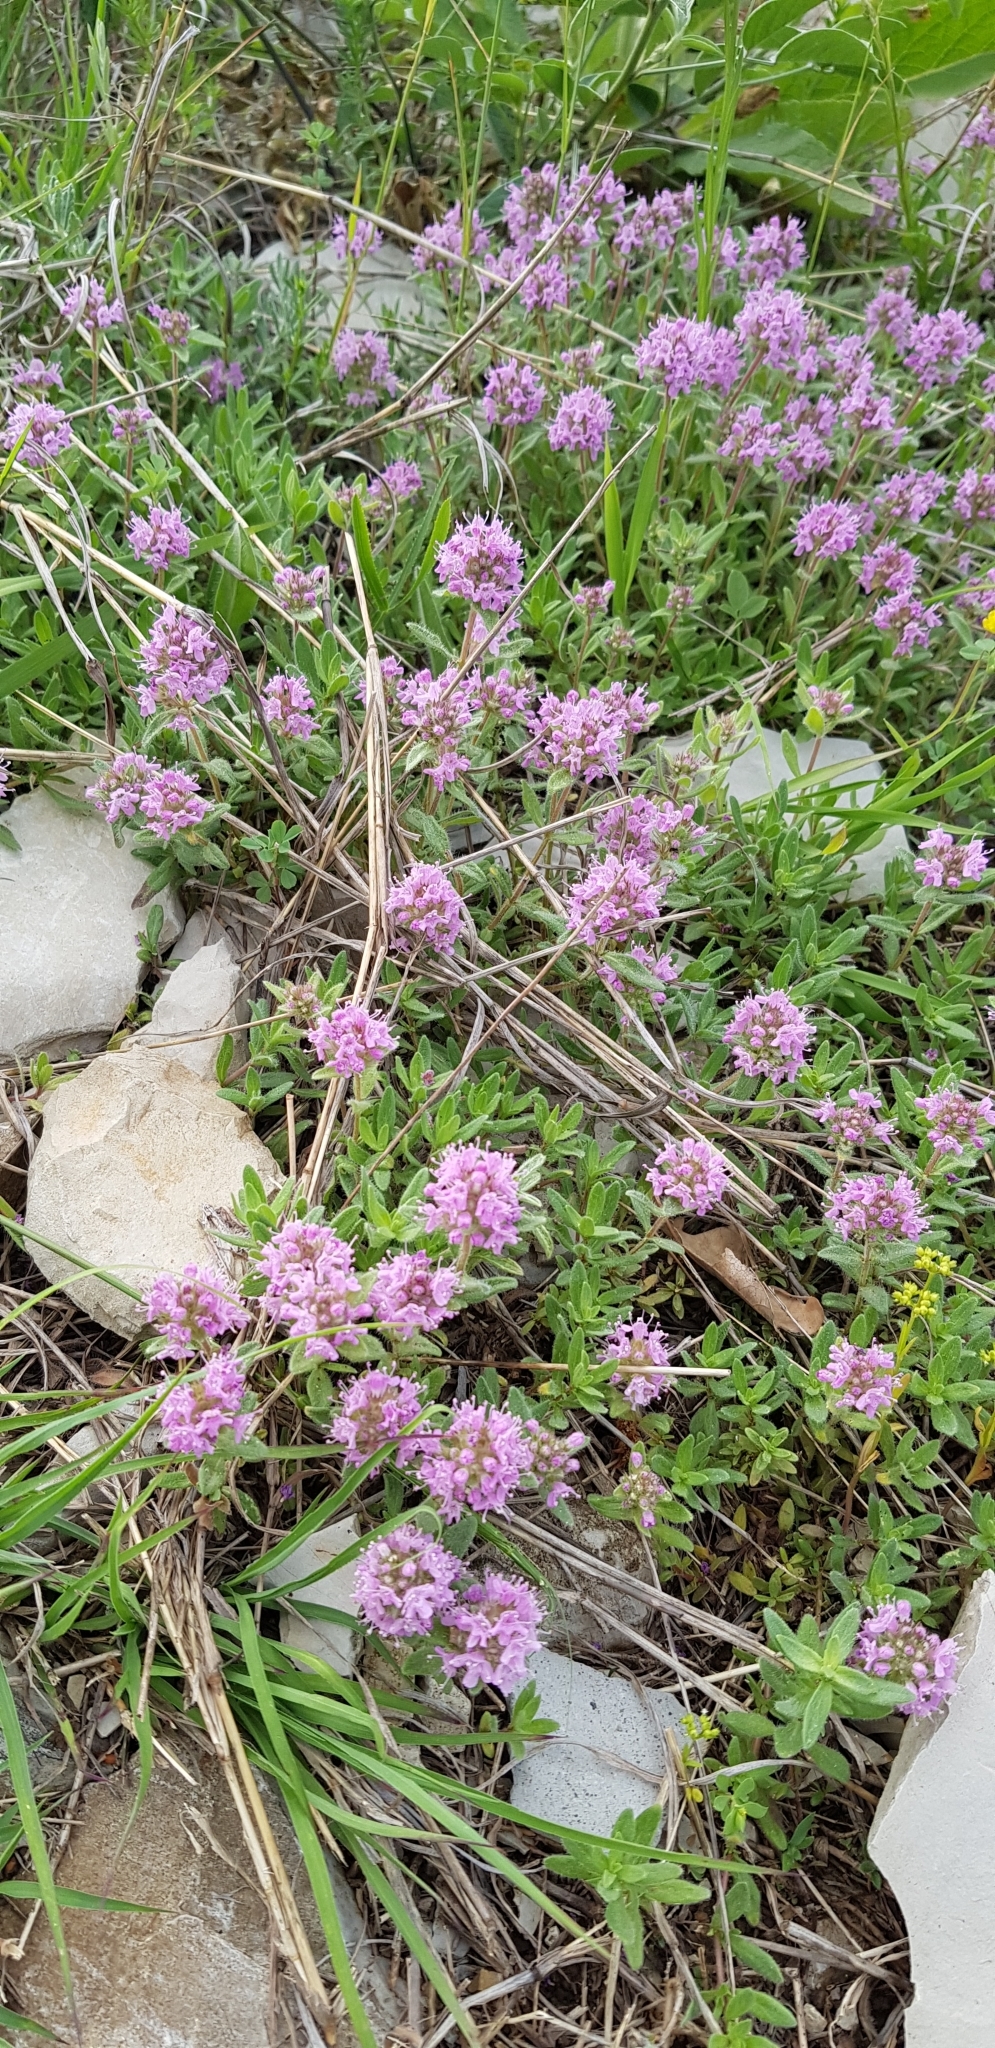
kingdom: Plantae
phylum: Tracheophyta
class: Magnoliopsida
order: Lamiales
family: Lamiaceae
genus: Thymus
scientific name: Thymus markhotensis
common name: Markhotian thyme
